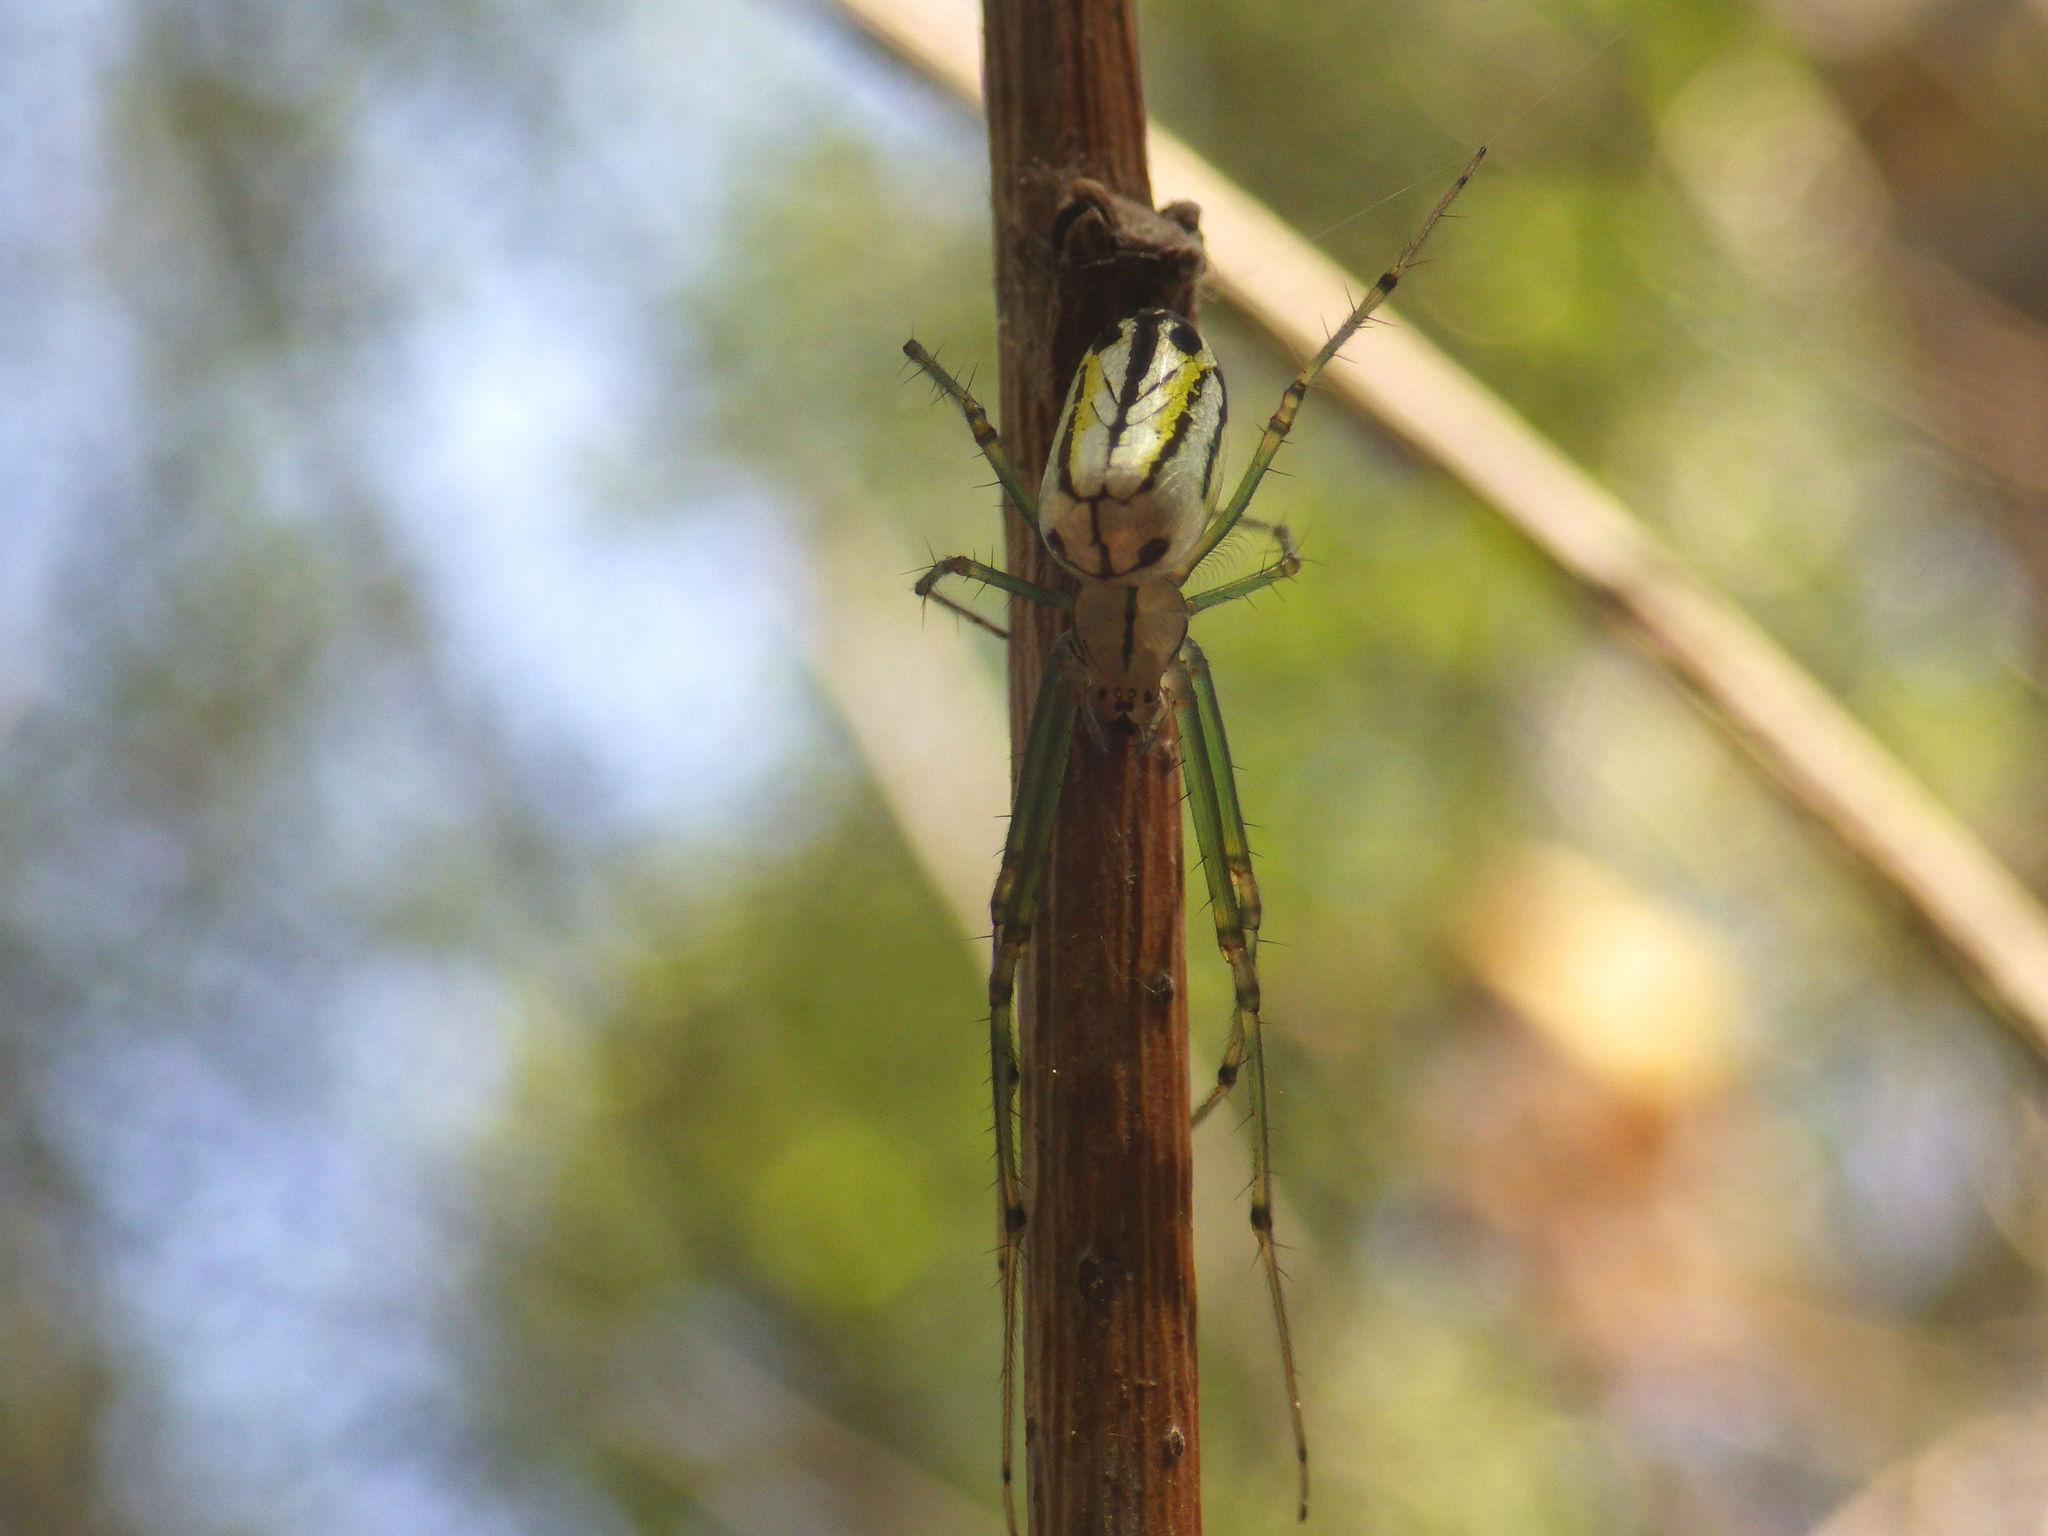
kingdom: Animalia
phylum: Arthropoda
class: Arachnida
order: Araneae
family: Tetragnathidae
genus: Leucauge
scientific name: Leucauge venusta
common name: Longjawed orb weavers
